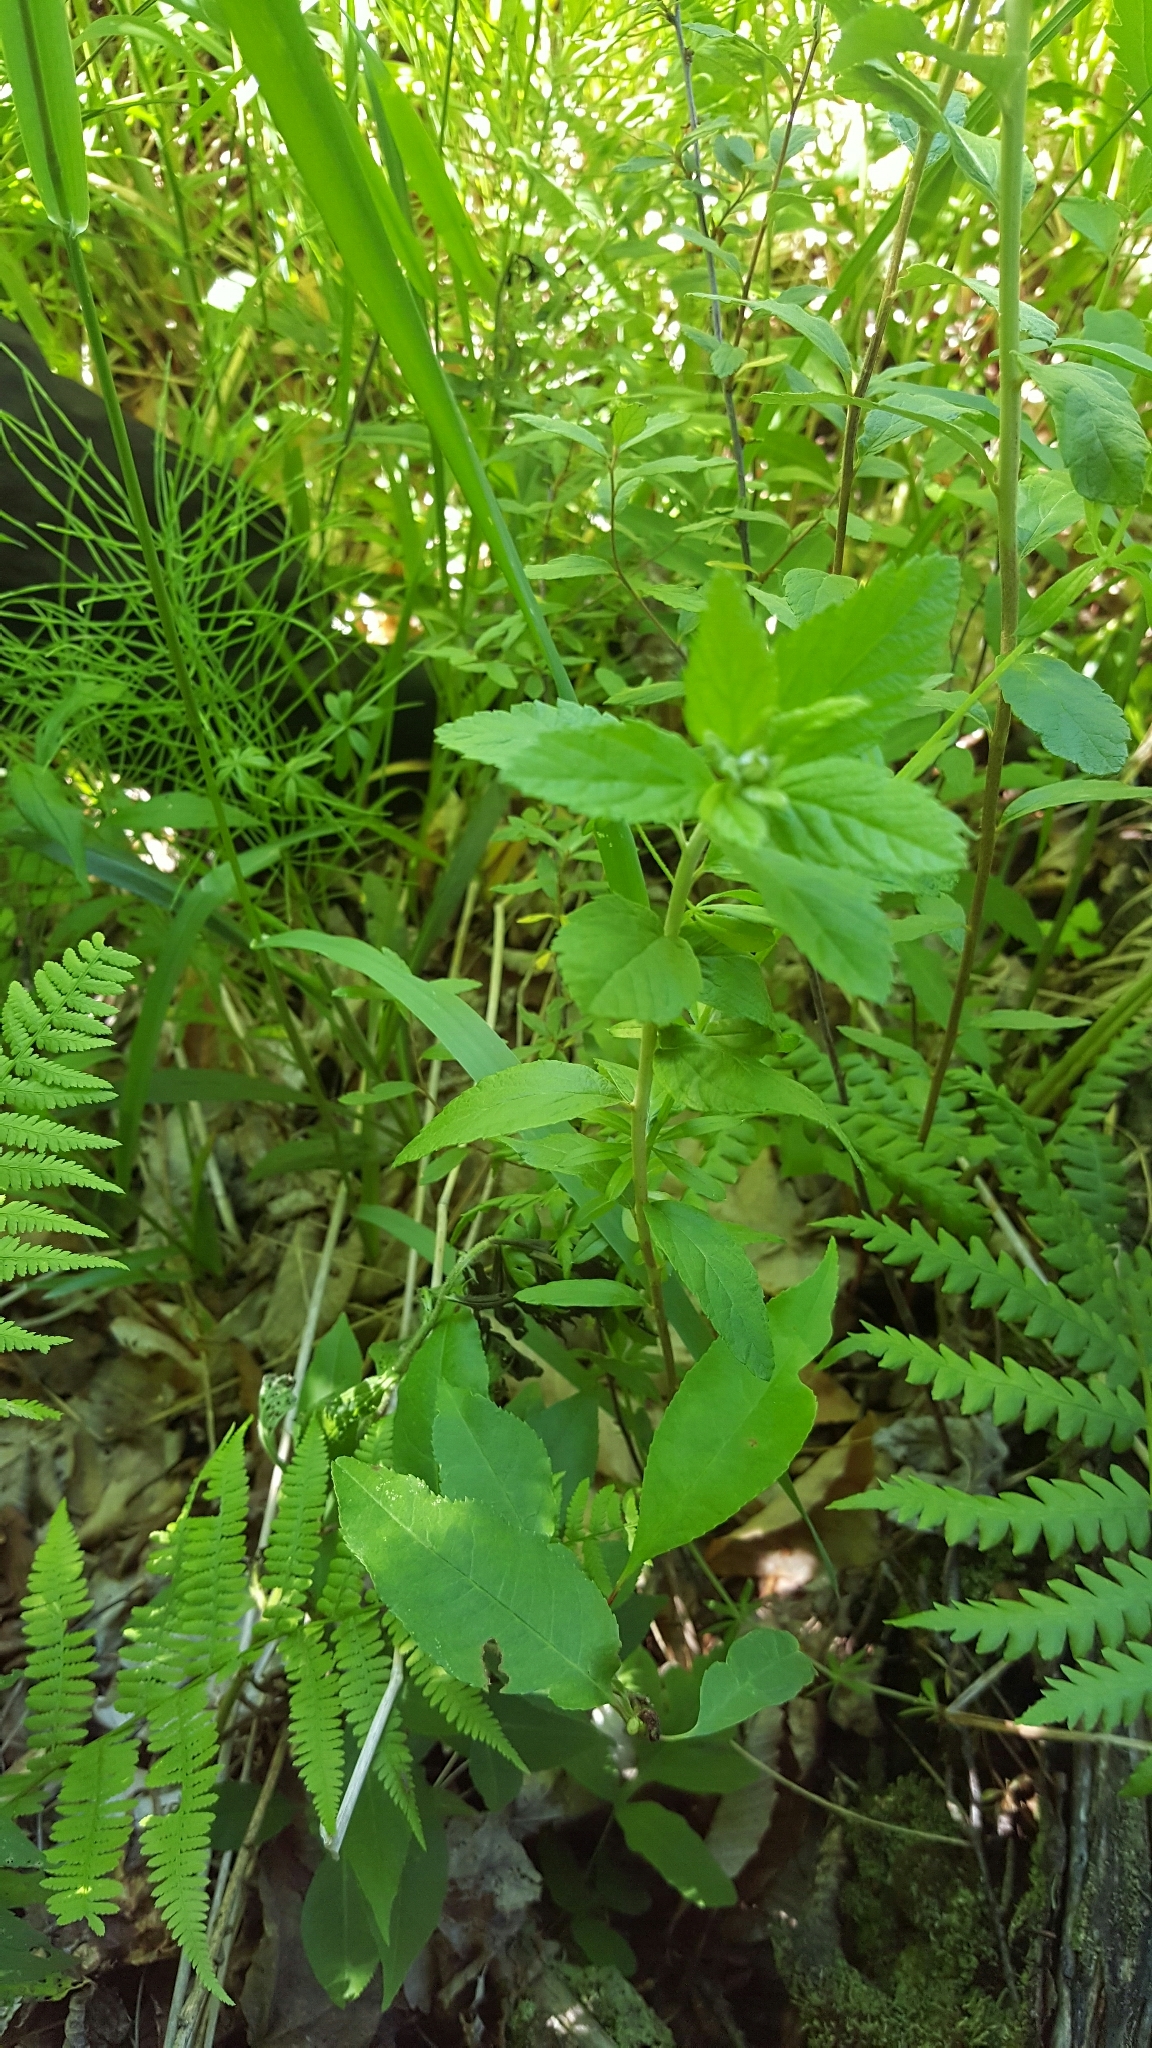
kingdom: Plantae
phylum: Tracheophyta
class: Magnoliopsida
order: Rosales
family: Rosaceae
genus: Spiraea
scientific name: Spiraea tomentosa
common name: Hardhack
